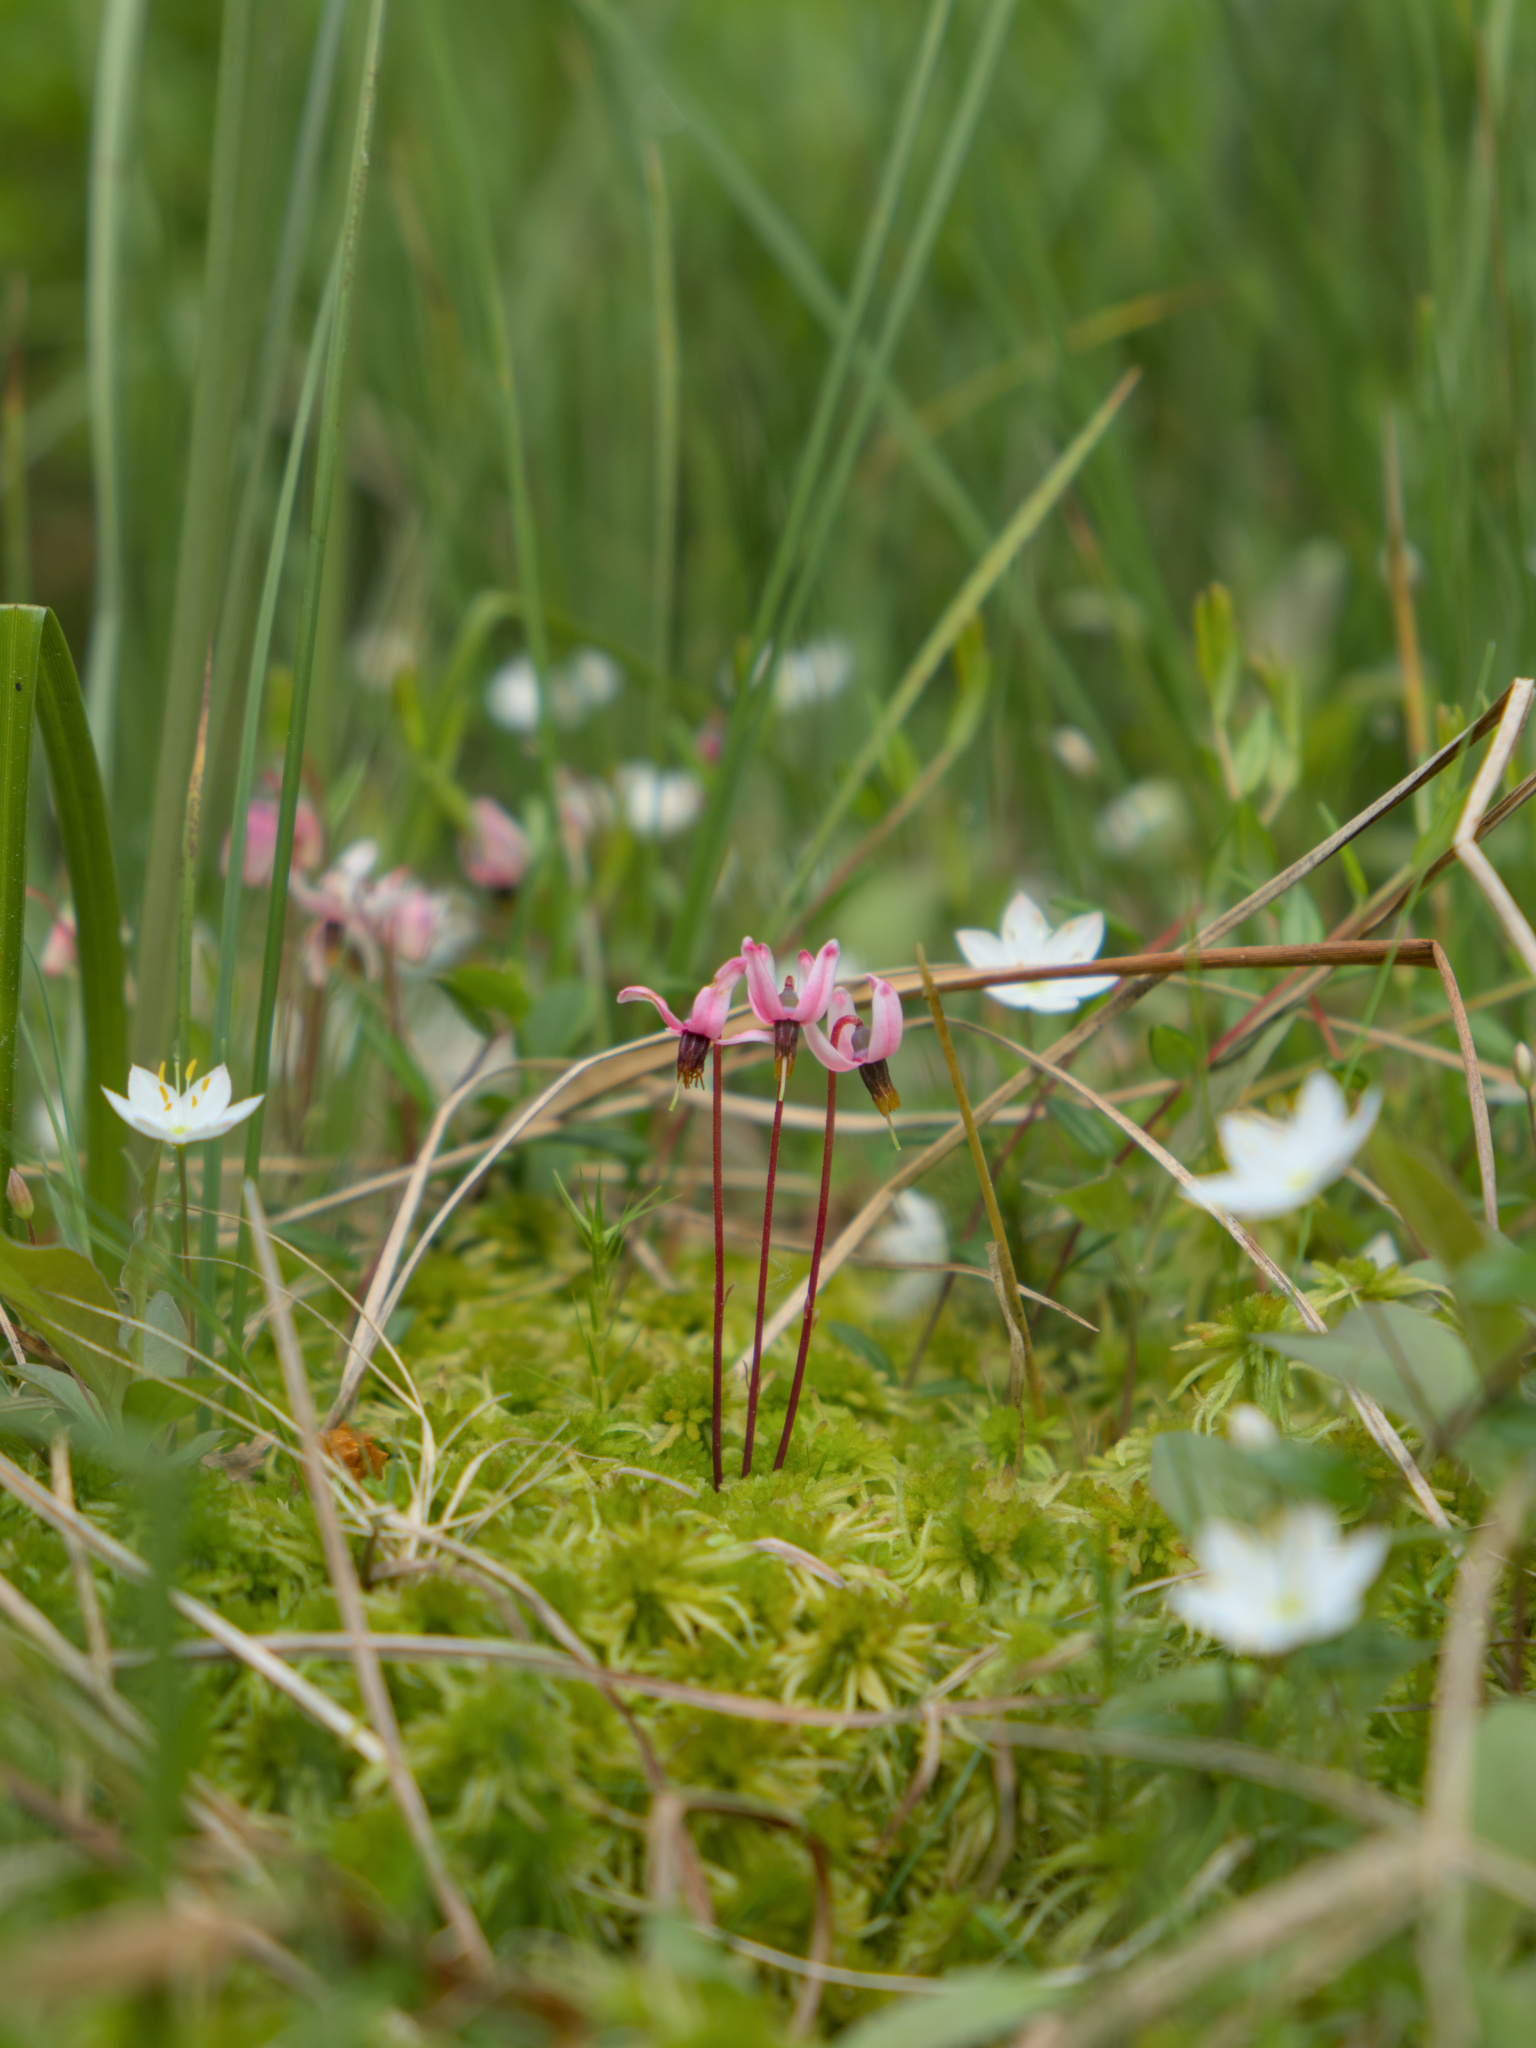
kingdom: Plantae
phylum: Tracheophyta
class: Magnoliopsida
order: Ericales
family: Ericaceae
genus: Vaccinium
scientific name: Vaccinium oxycoccos
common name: Cranberry
